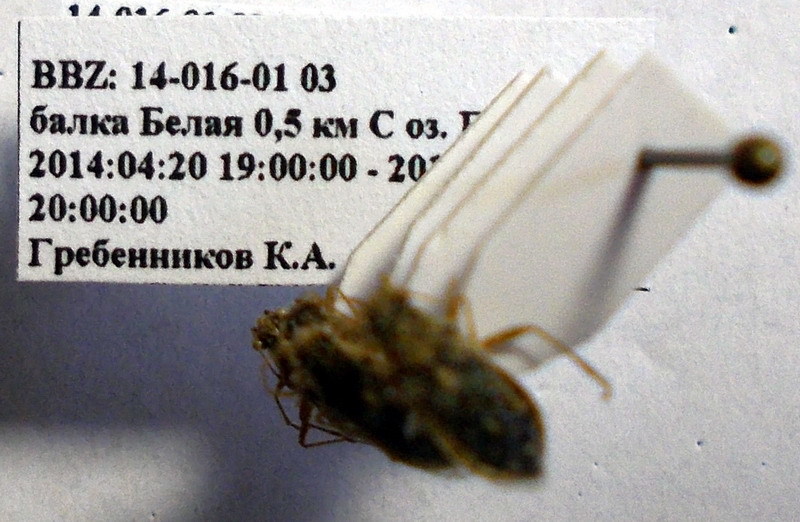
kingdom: Animalia
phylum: Arthropoda
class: Insecta
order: Hemiptera
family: Rhopalidae
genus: Brachycarenus
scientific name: Brachycarenus tigrinus
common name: Scentless plant bug
